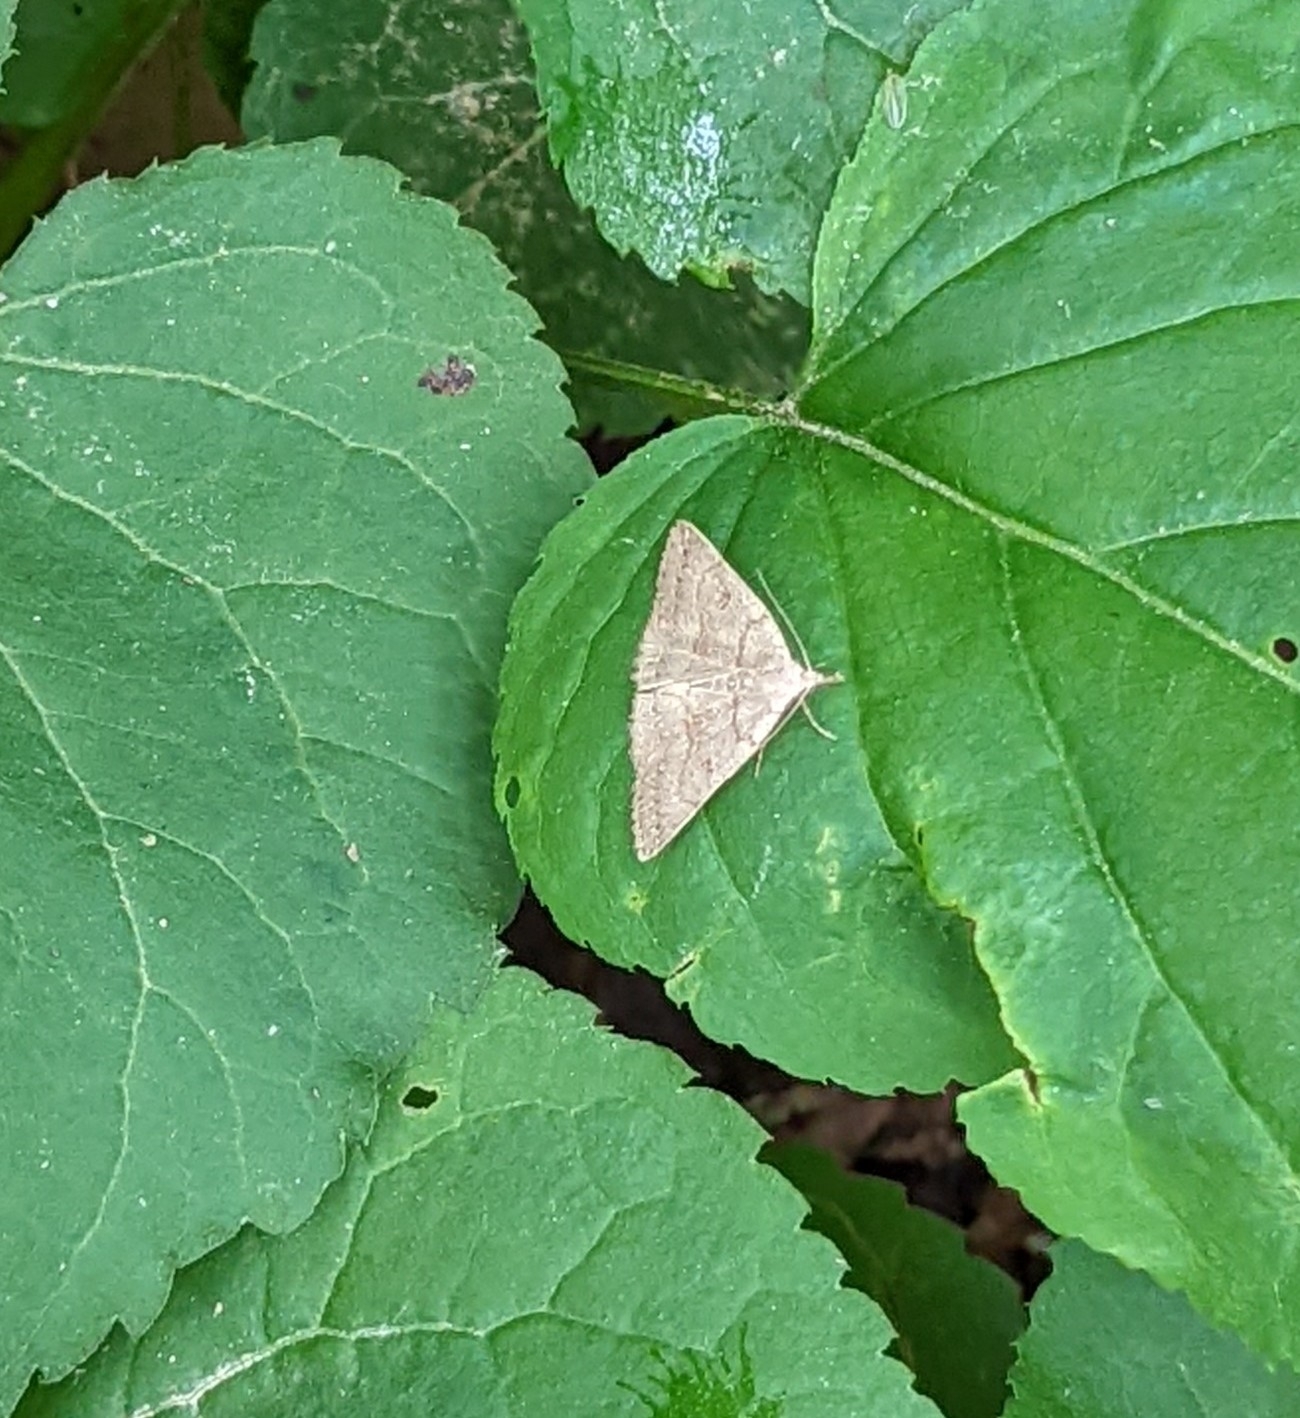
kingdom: Animalia
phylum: Arthropoda
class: Insecta
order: Lepidoptera
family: Erebidae
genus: Macrochilo
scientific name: Macrochilo morbidalis
